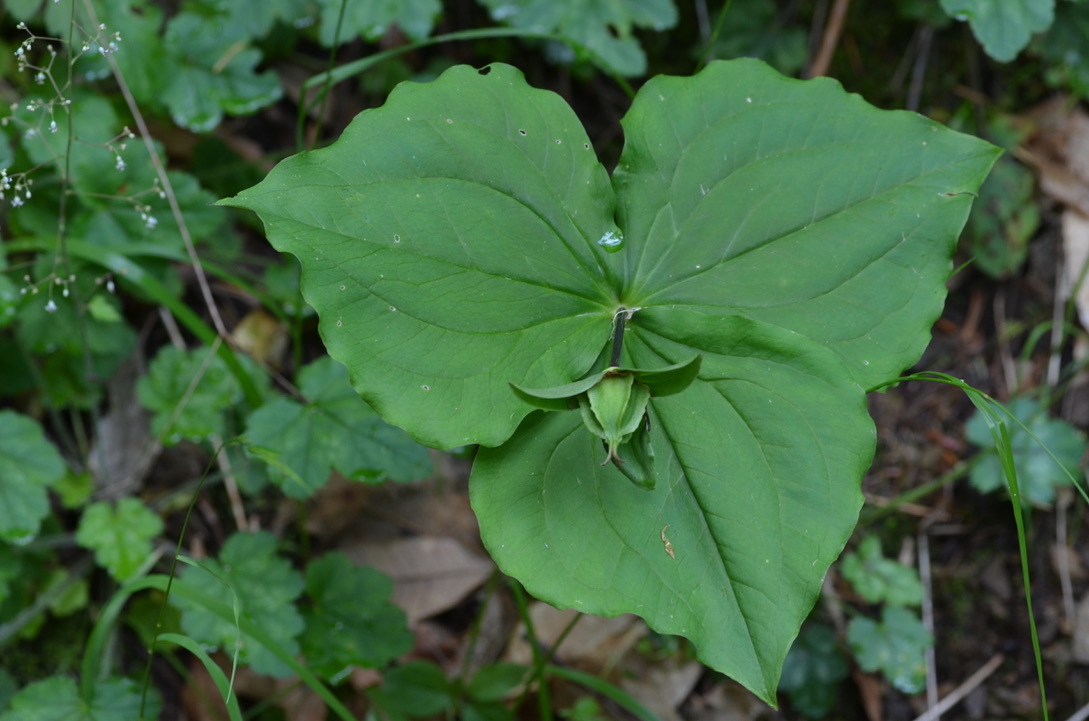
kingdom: Plantae
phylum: Tracheophyta
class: Liliopsida
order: Liliales
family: Melanthiaceae
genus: Trillium
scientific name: Trillium ovatum
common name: Pacific trillium
